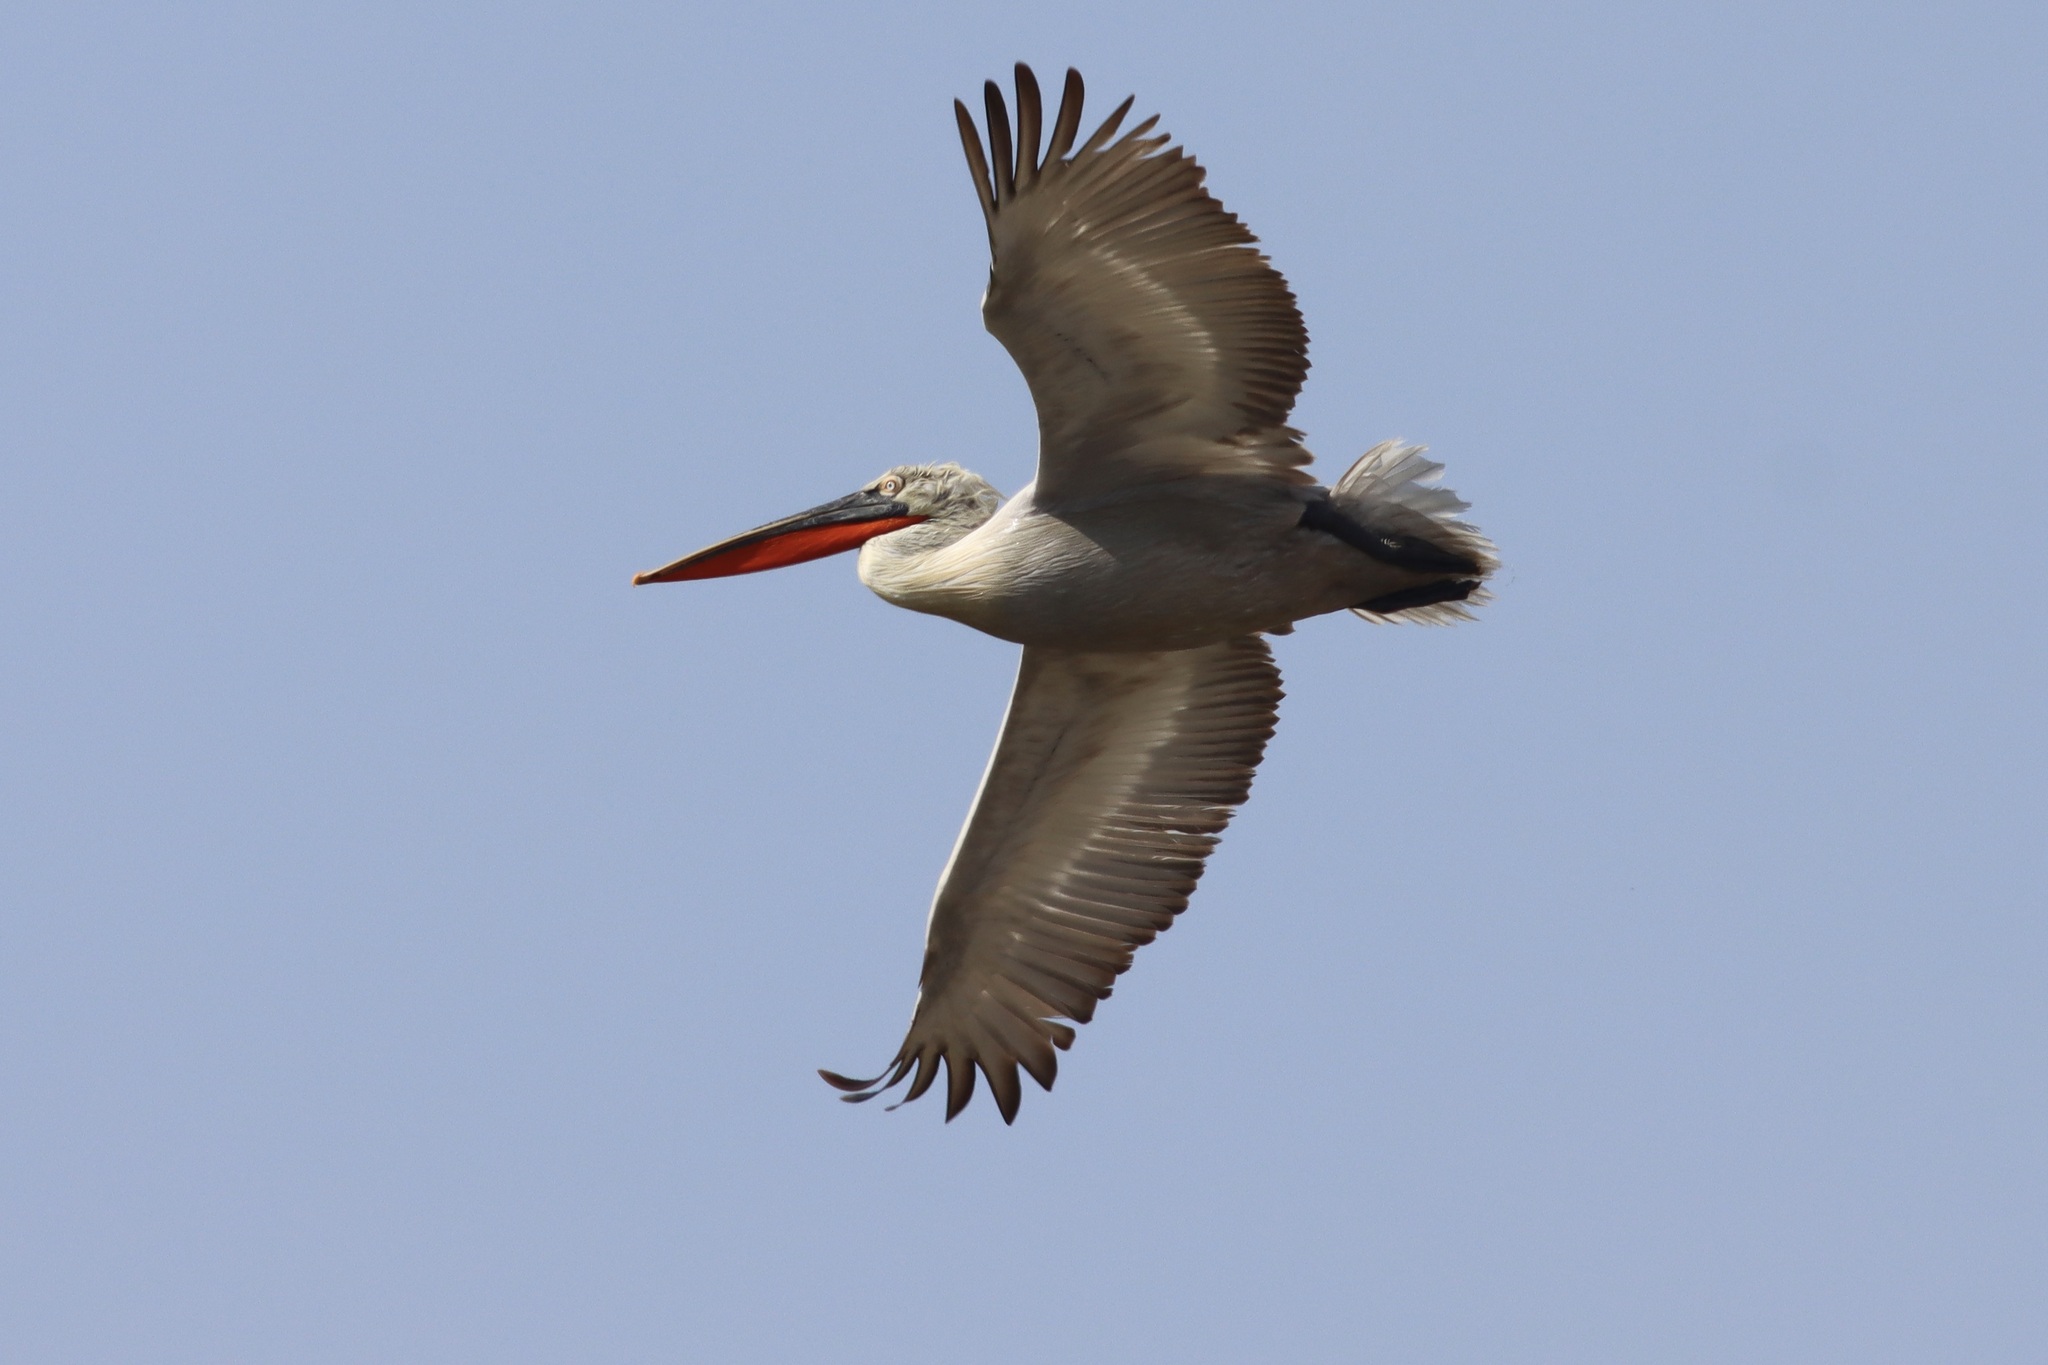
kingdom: Animalia
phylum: Chordata
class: Aves
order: Pelecaniformes
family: Pelecanidae
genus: Pelecanus
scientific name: Pelecanus crispus
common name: Dalmatian pelican
